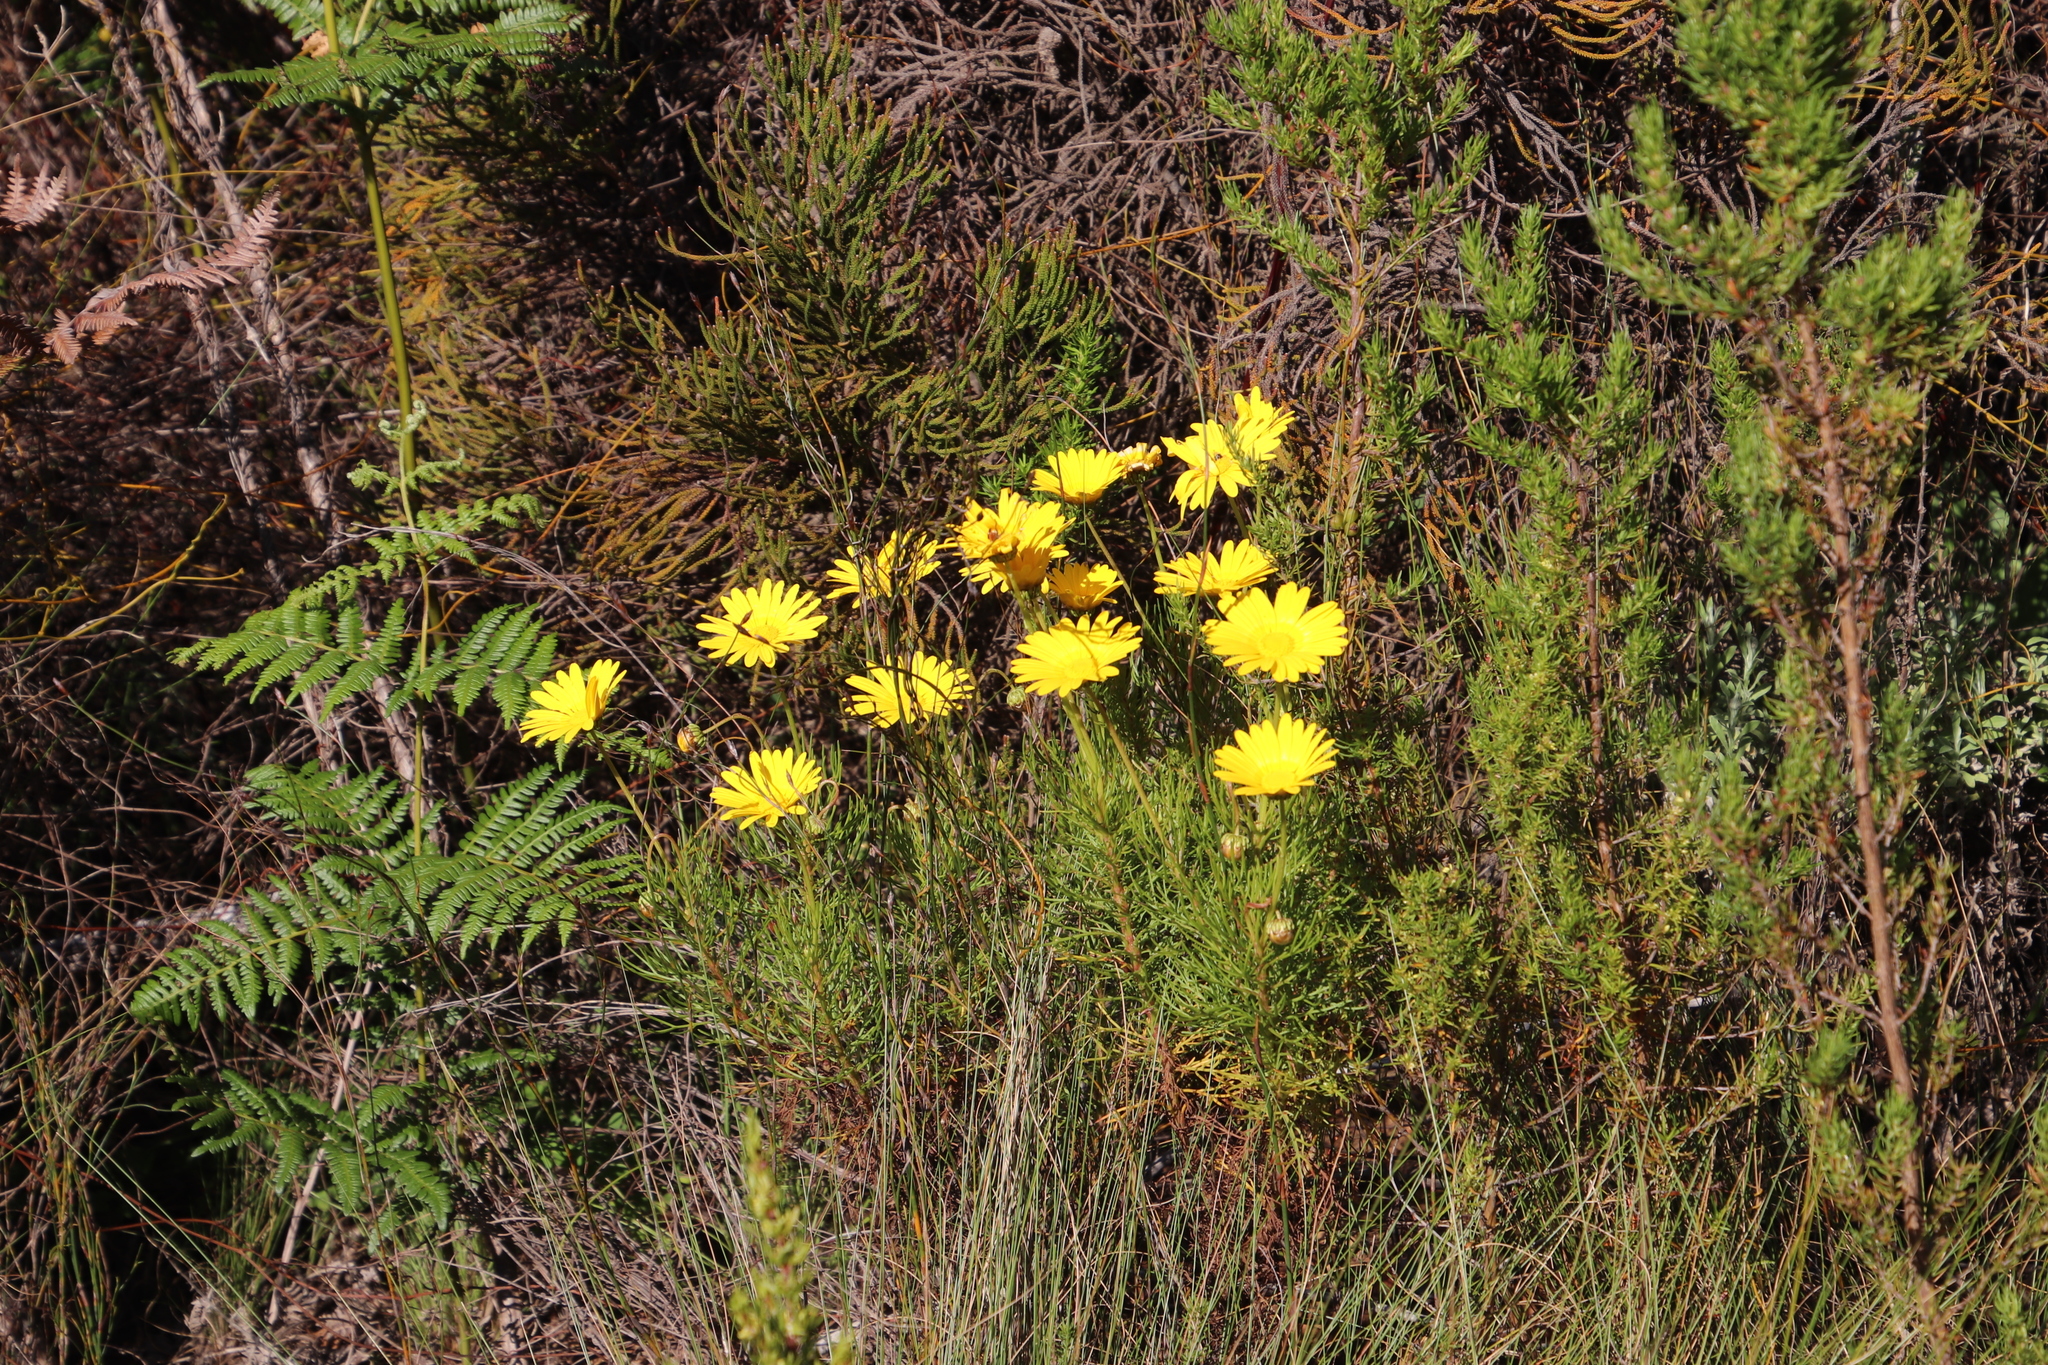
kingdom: Plantae
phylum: Tracheophyta
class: Magnoliopsida
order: Asterales
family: Asteraceae
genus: Euryops
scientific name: Euryops abrotanifolius
